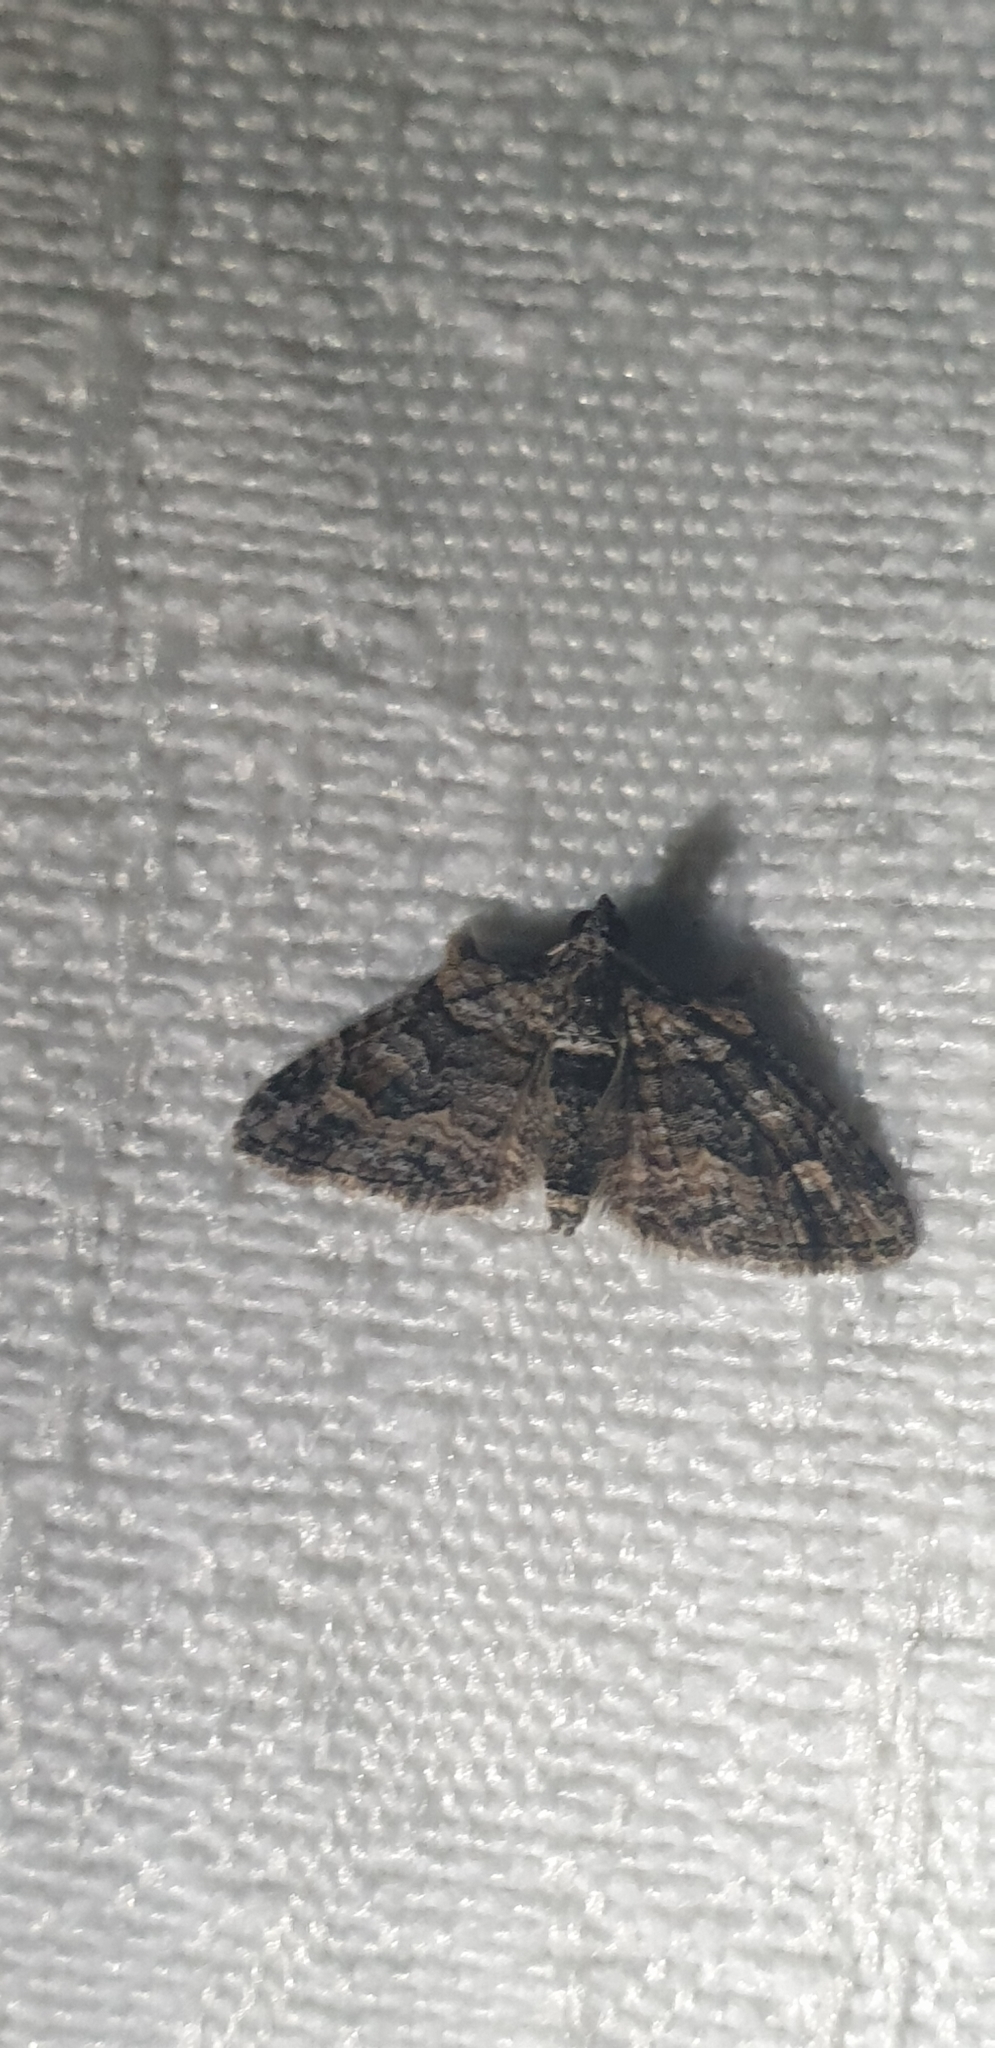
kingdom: Animalia
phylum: Arthropoda
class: Insecta
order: Lepidoptera
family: Geometridae
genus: Phrissogonus
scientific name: Phrissogonus laticostata
